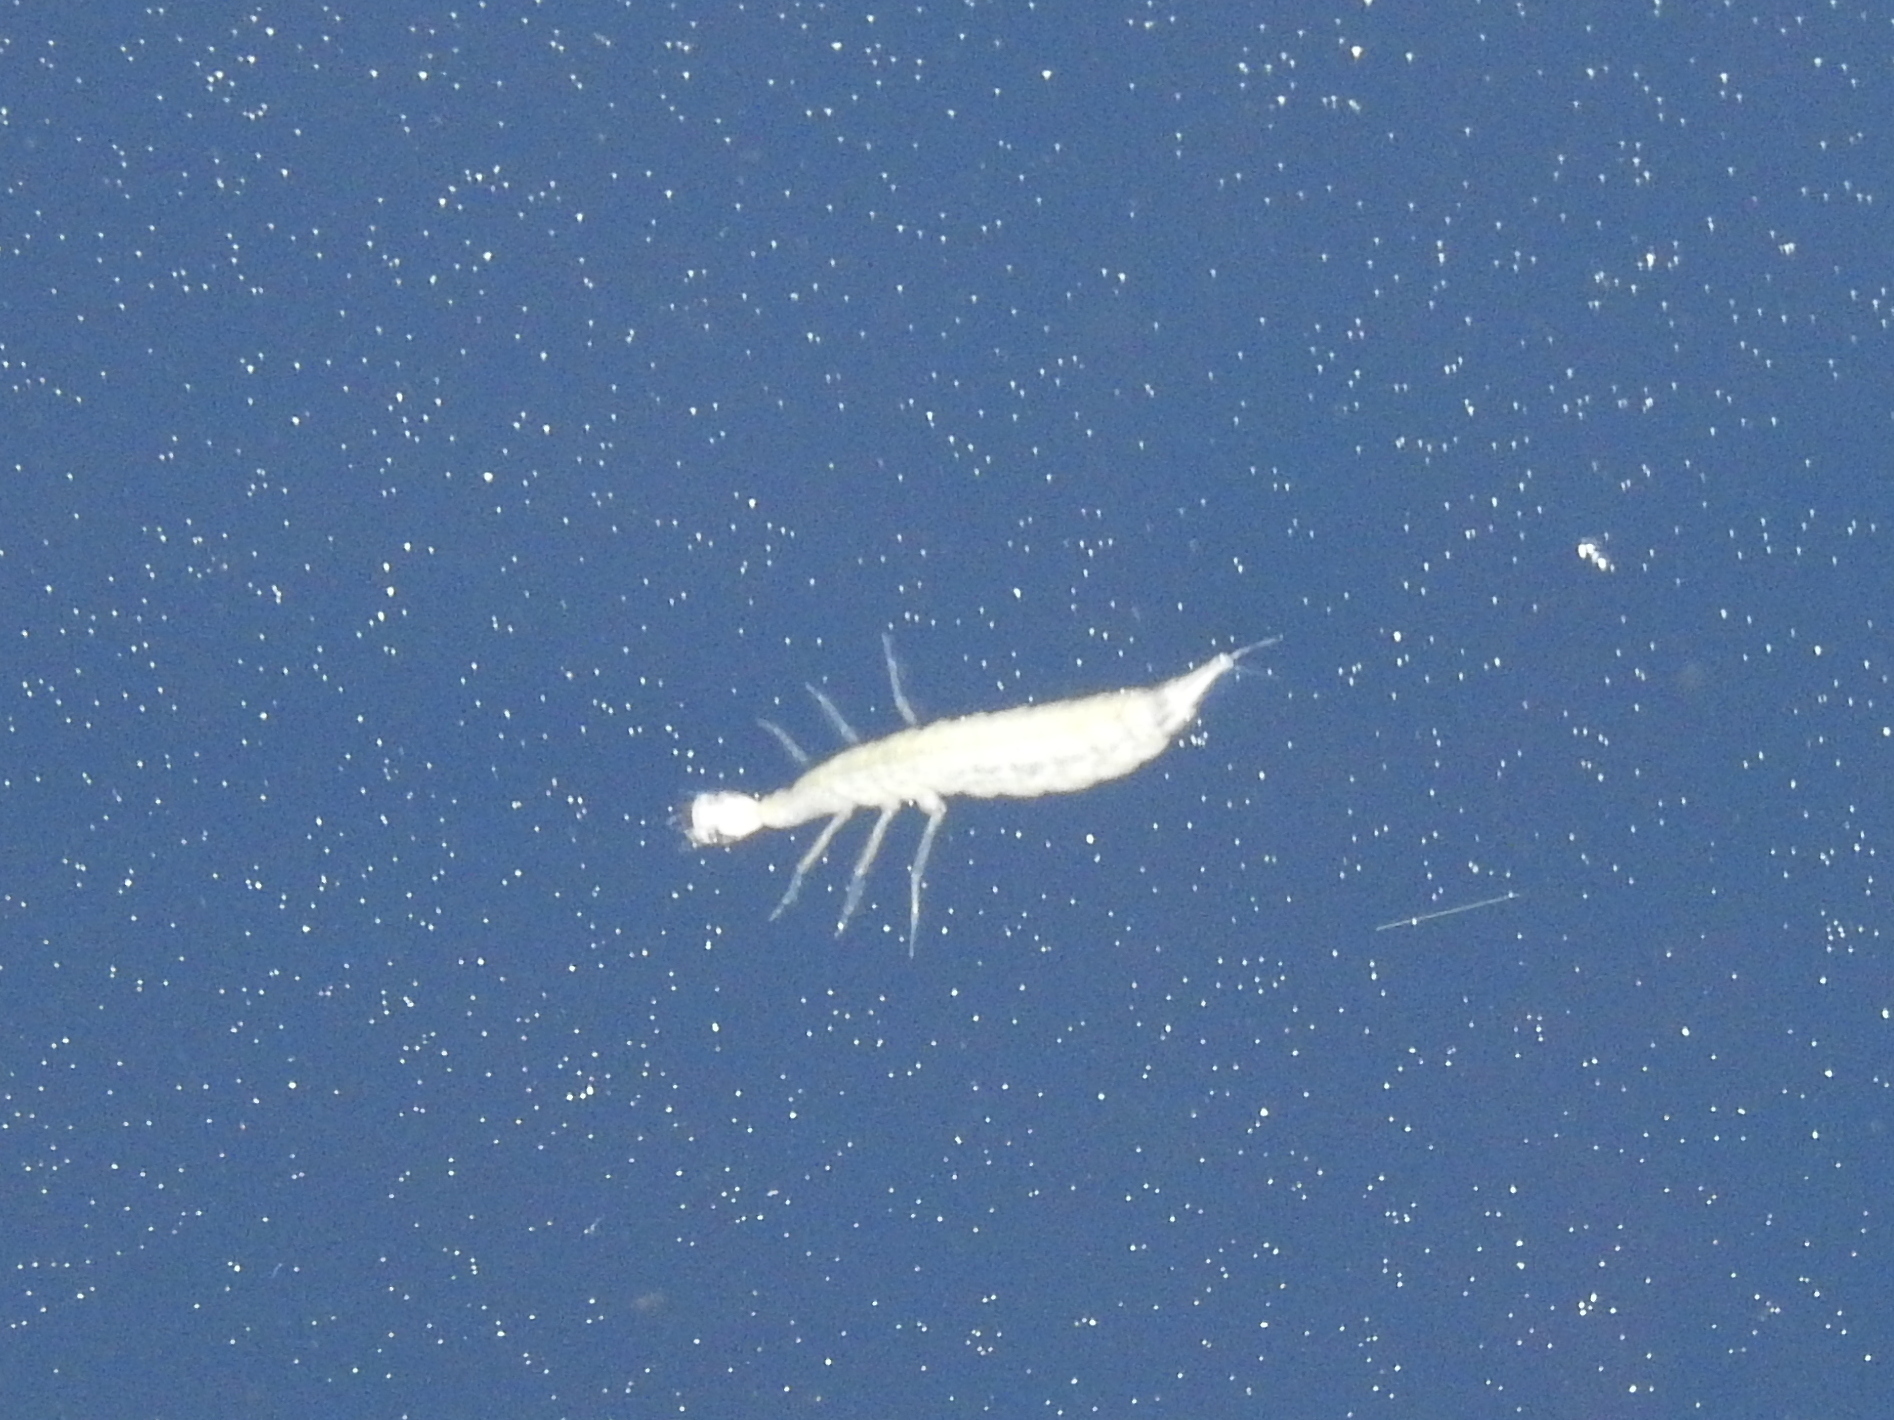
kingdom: Animalia
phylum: Arthropoda
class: Insecta
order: Coleoptera
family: Dytiscidae
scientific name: Dytiscidae
